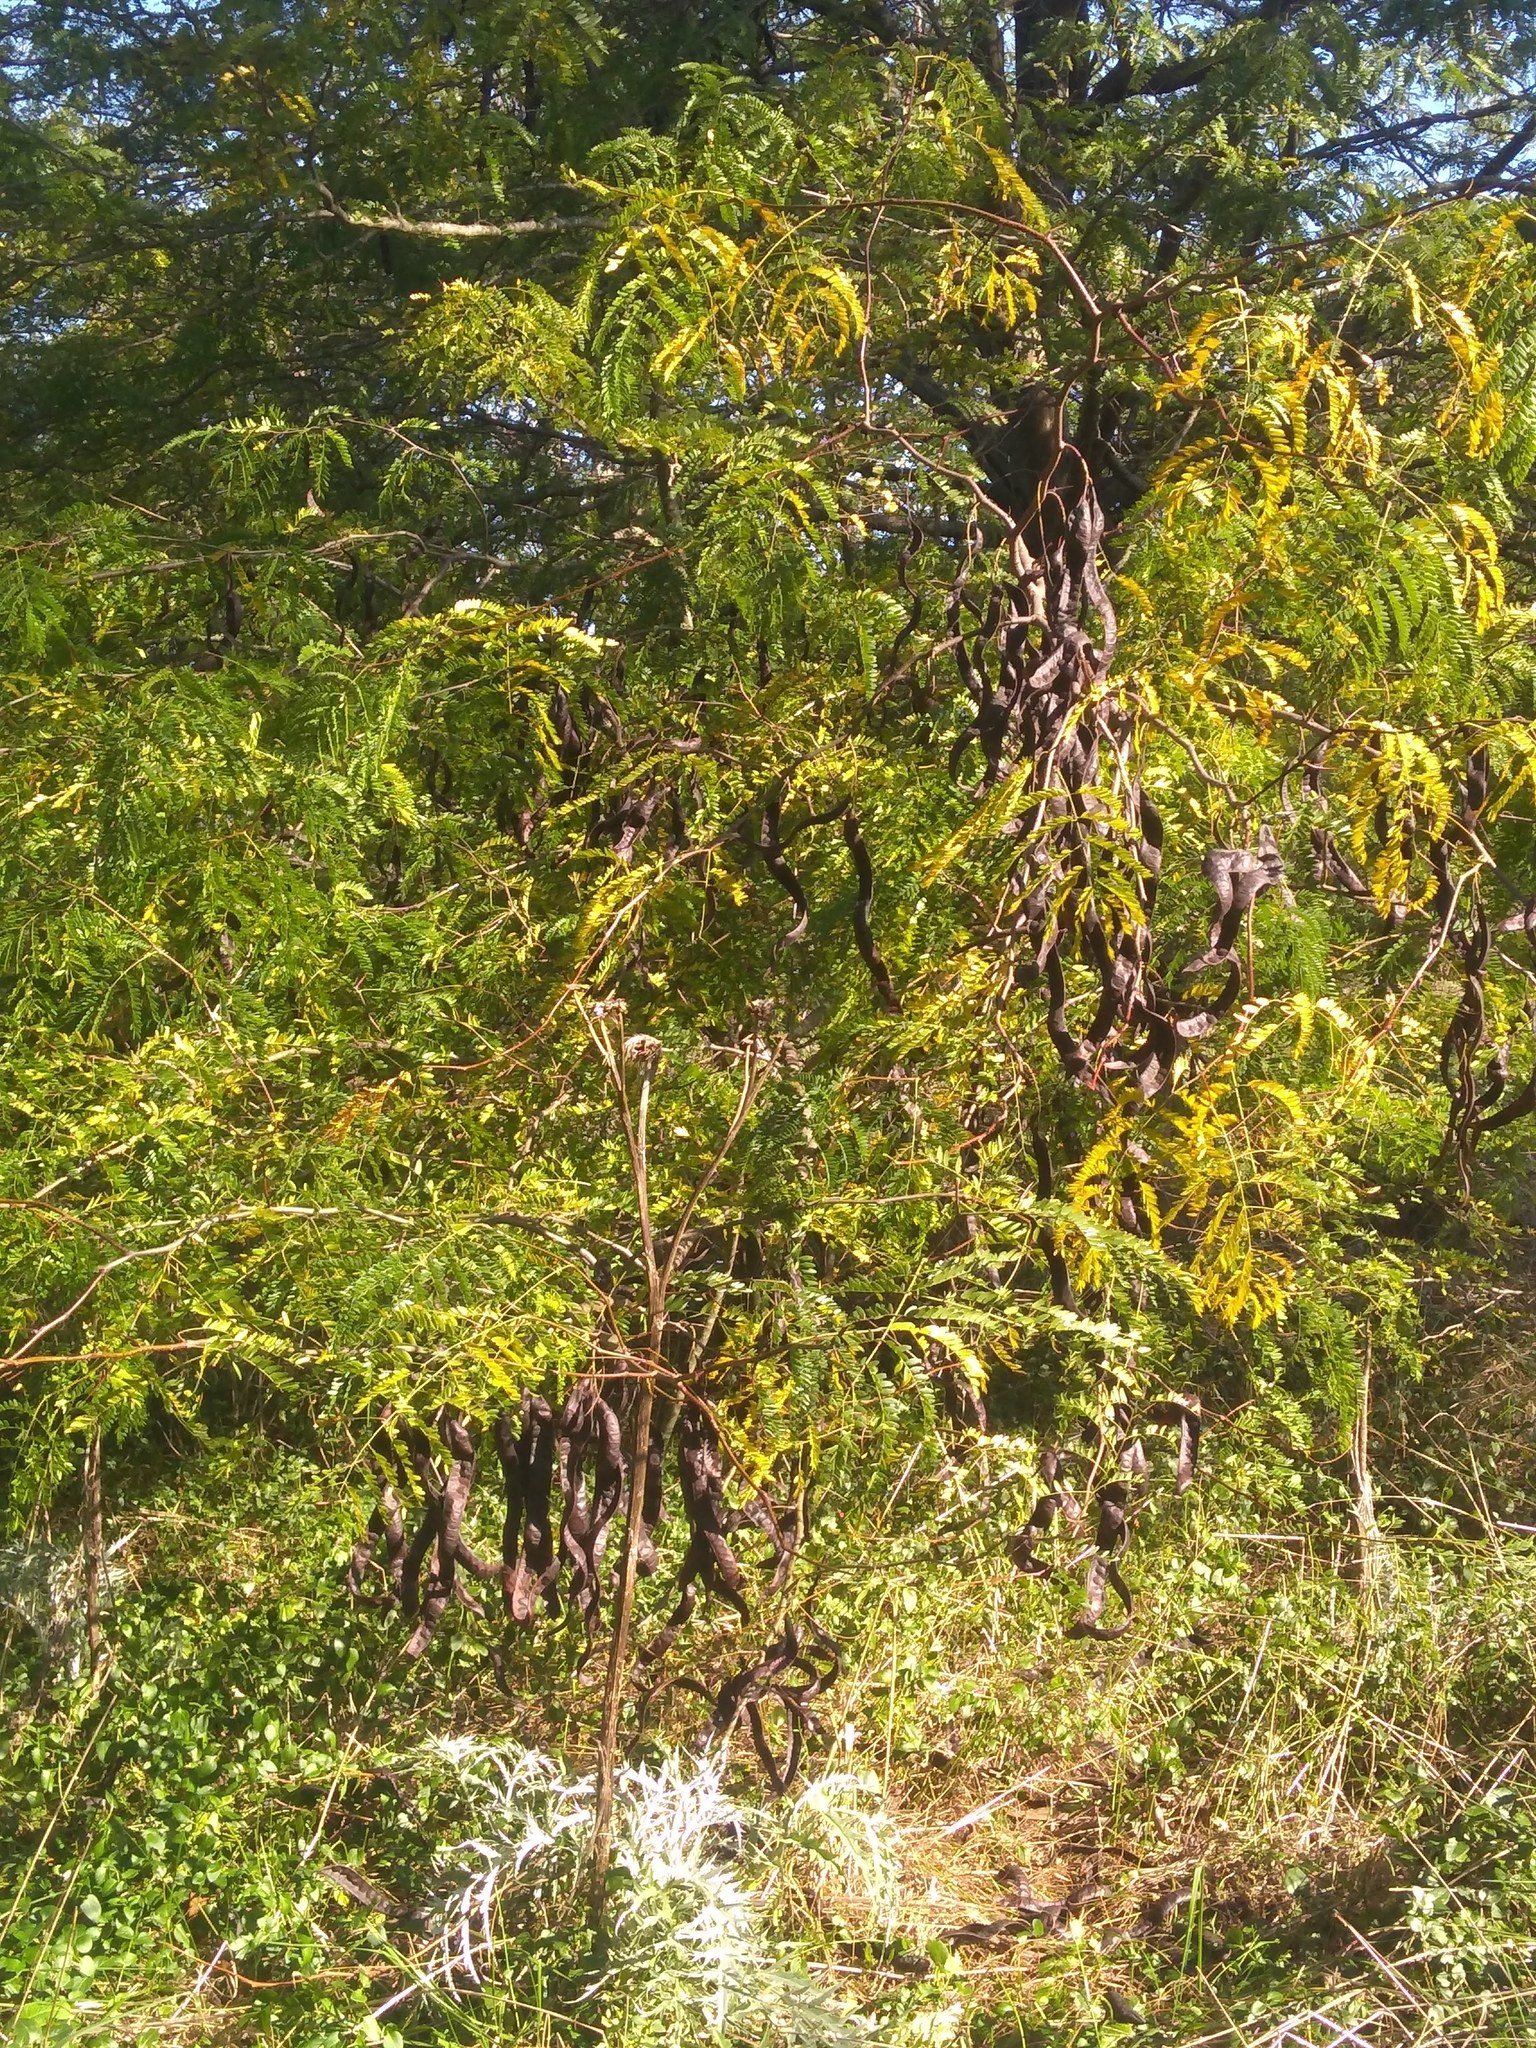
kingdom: Plantae
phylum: Tracheophyta
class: Magnoliopsida
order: Fabales
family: Fabaceae
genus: Gleditsia
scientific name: Gleditsia triacanthos
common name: Common honeylocust
